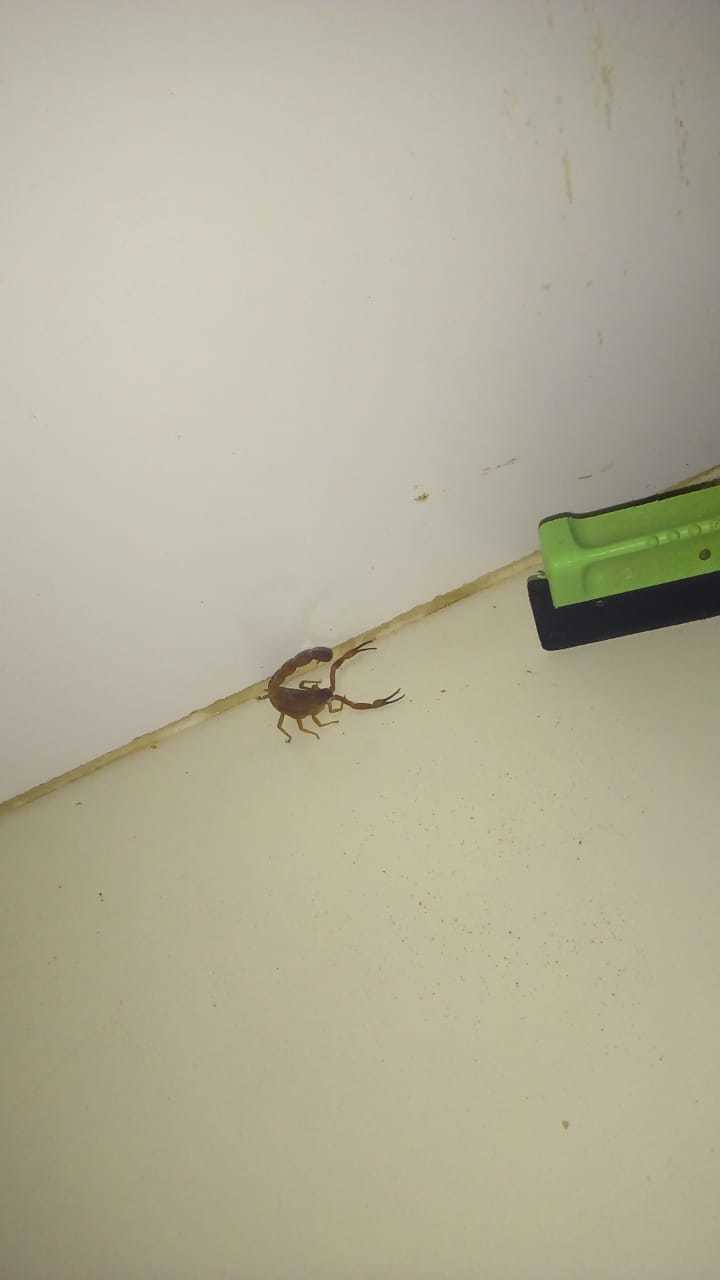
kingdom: Animalia
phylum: Arthropoda
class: Arachnida
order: Scorpiones
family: Buthidae
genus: Tityus
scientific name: Tityus stigmurus
